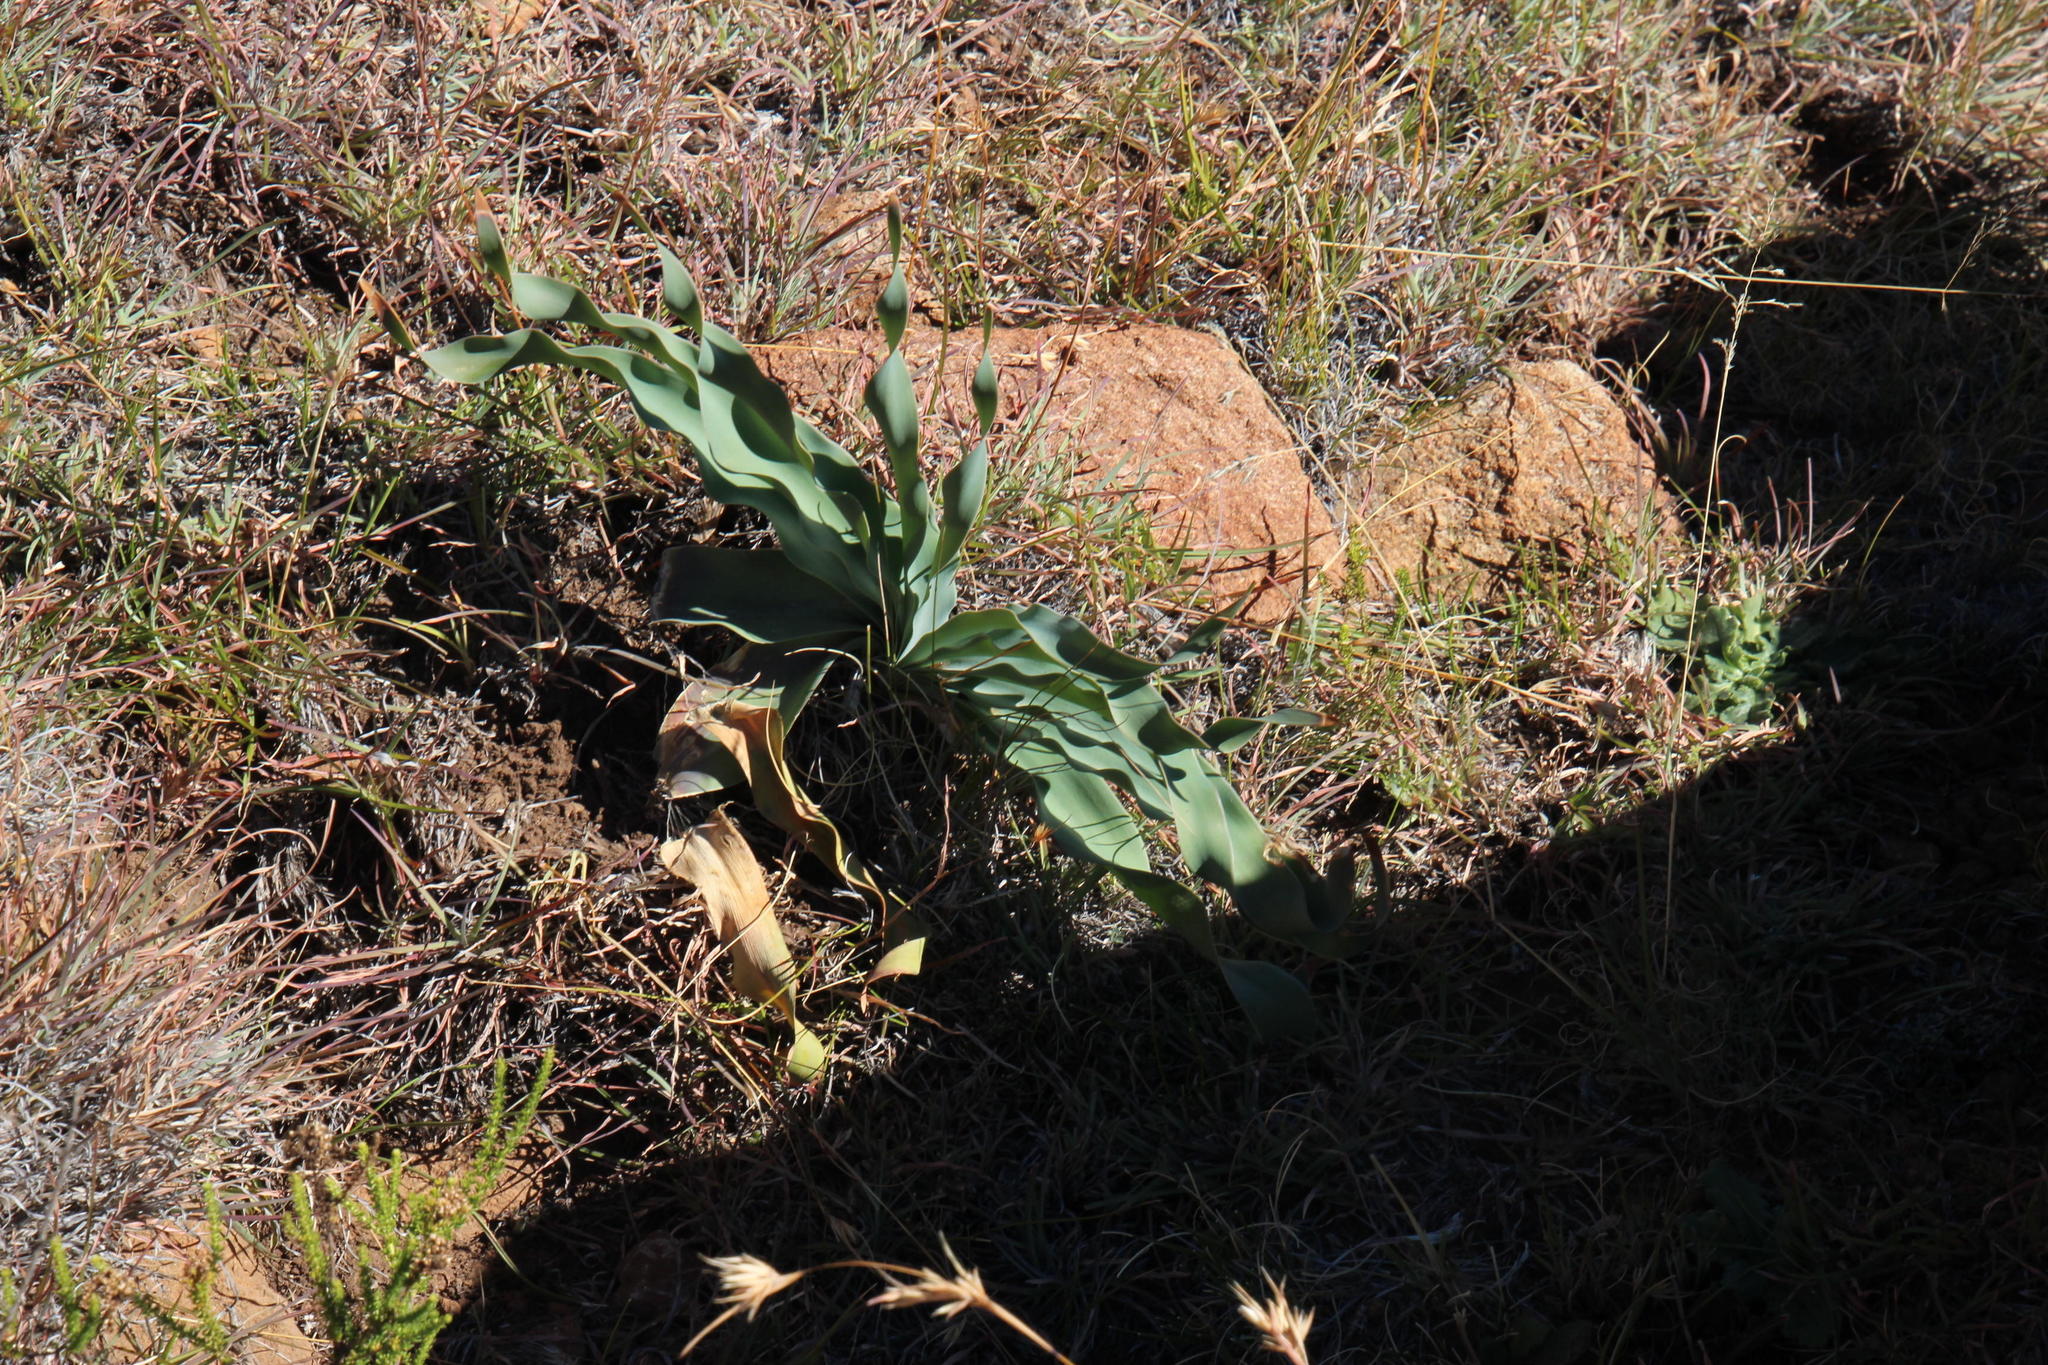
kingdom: Plantae
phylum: Tracheophyta
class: Liliopsida
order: Asparagales
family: Amaryllidaceae
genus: Boophone
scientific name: Boophone disticha
